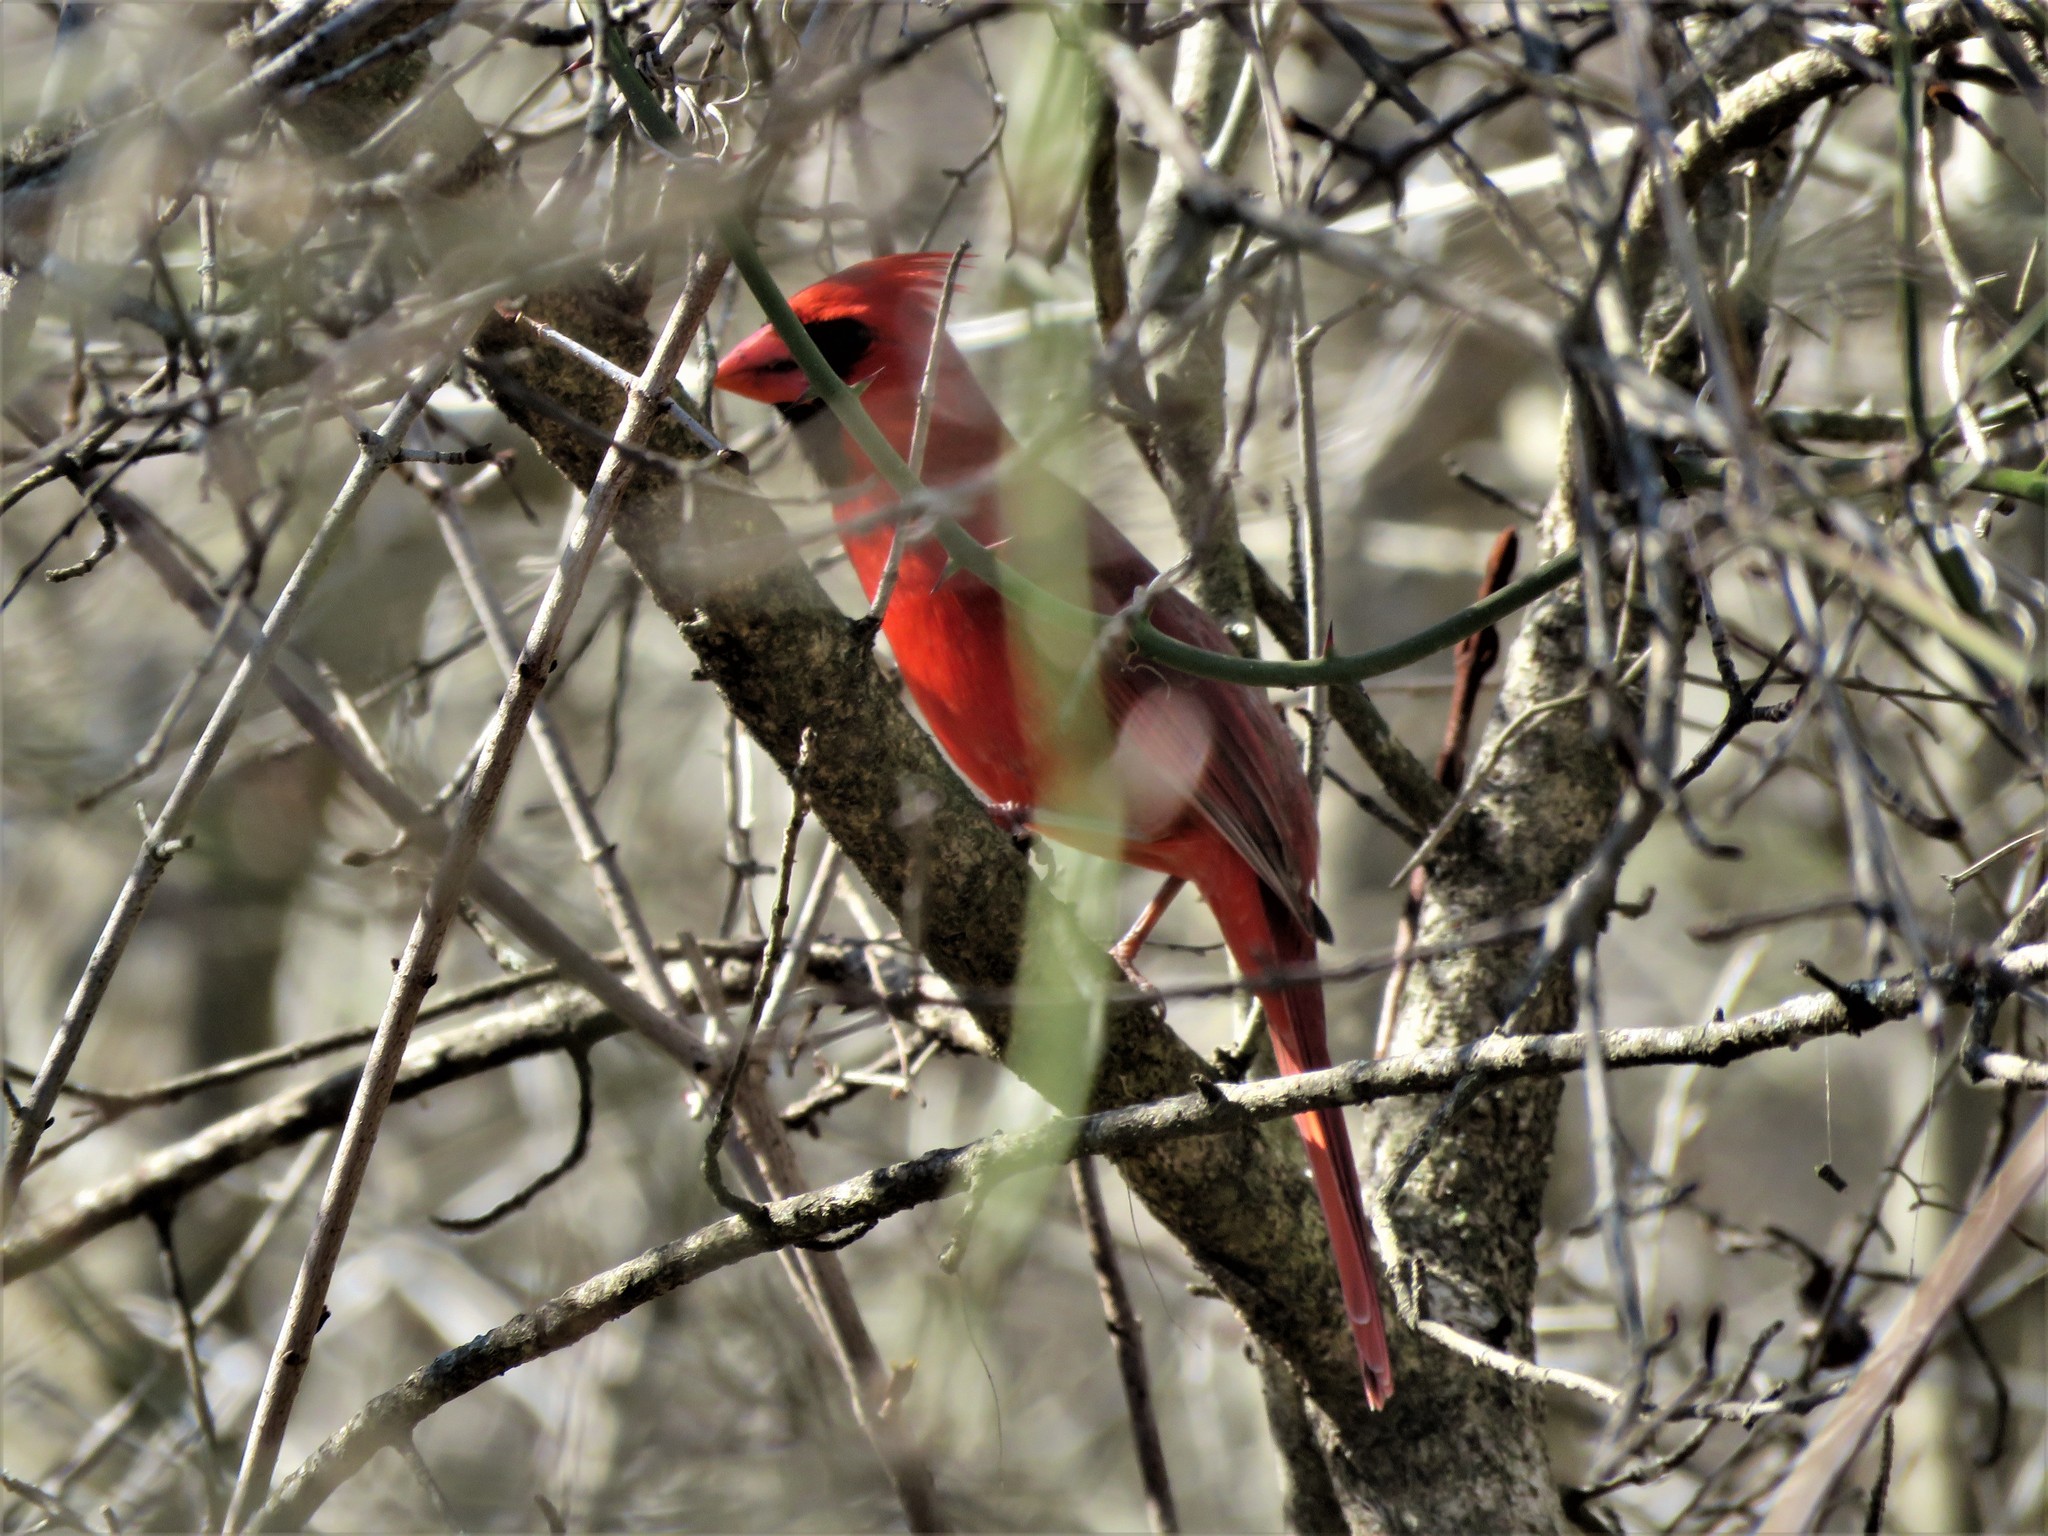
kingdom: Animalia
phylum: Chordata
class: Aves
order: Passeriformes
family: Cardinalidae
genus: Cardinalis
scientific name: Cardinalis cardinalis
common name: Northern cardinal
